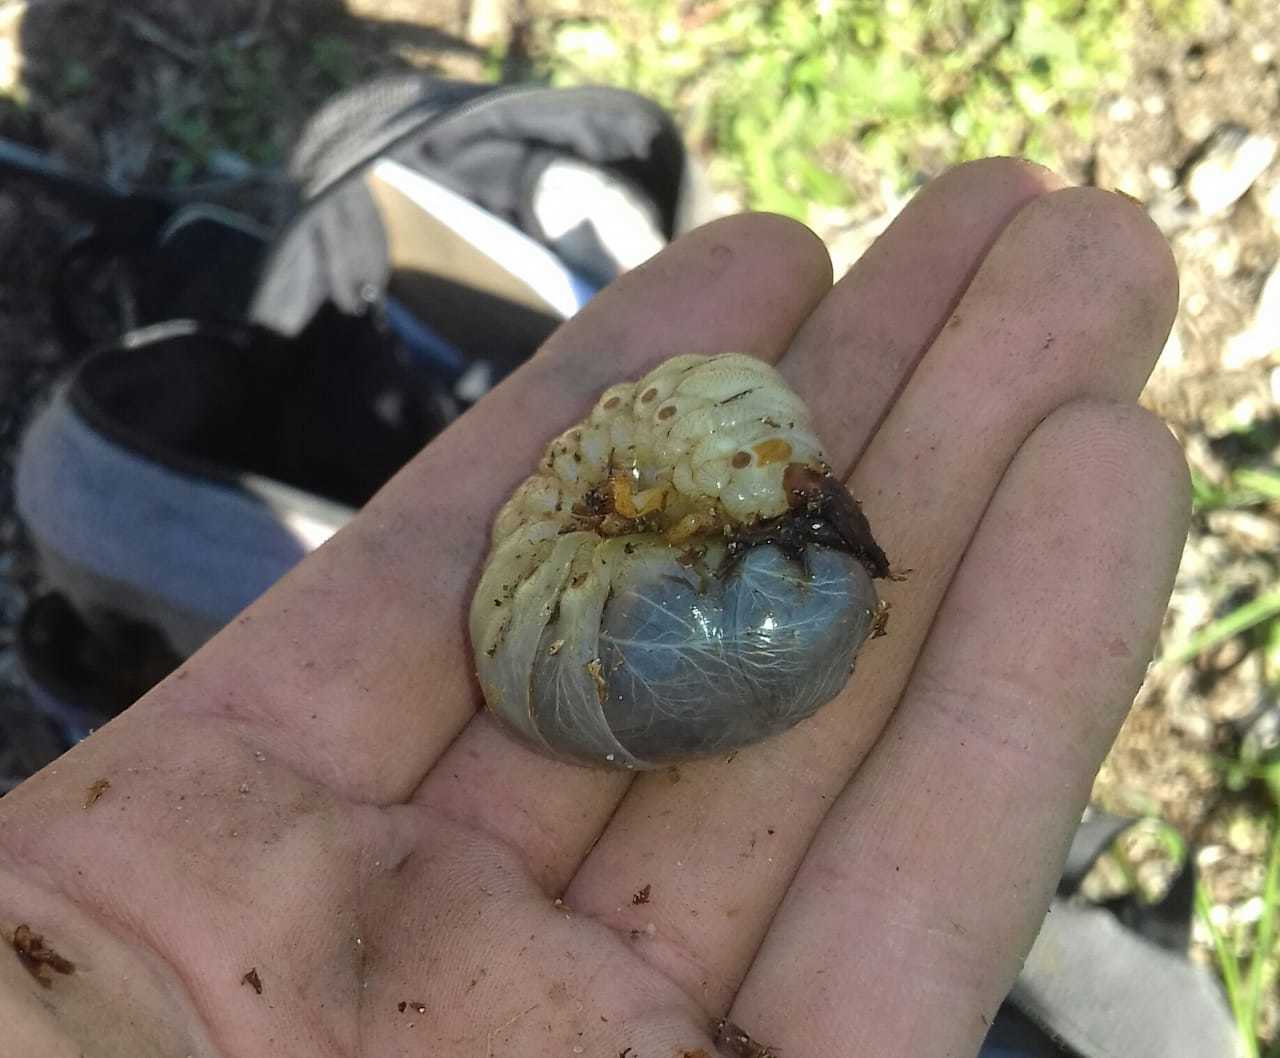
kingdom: Animalia
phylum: Arthropoda
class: Insecta
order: Coleoptera
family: Scarabaeidae
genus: Oryctes
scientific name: Oryctes boas
